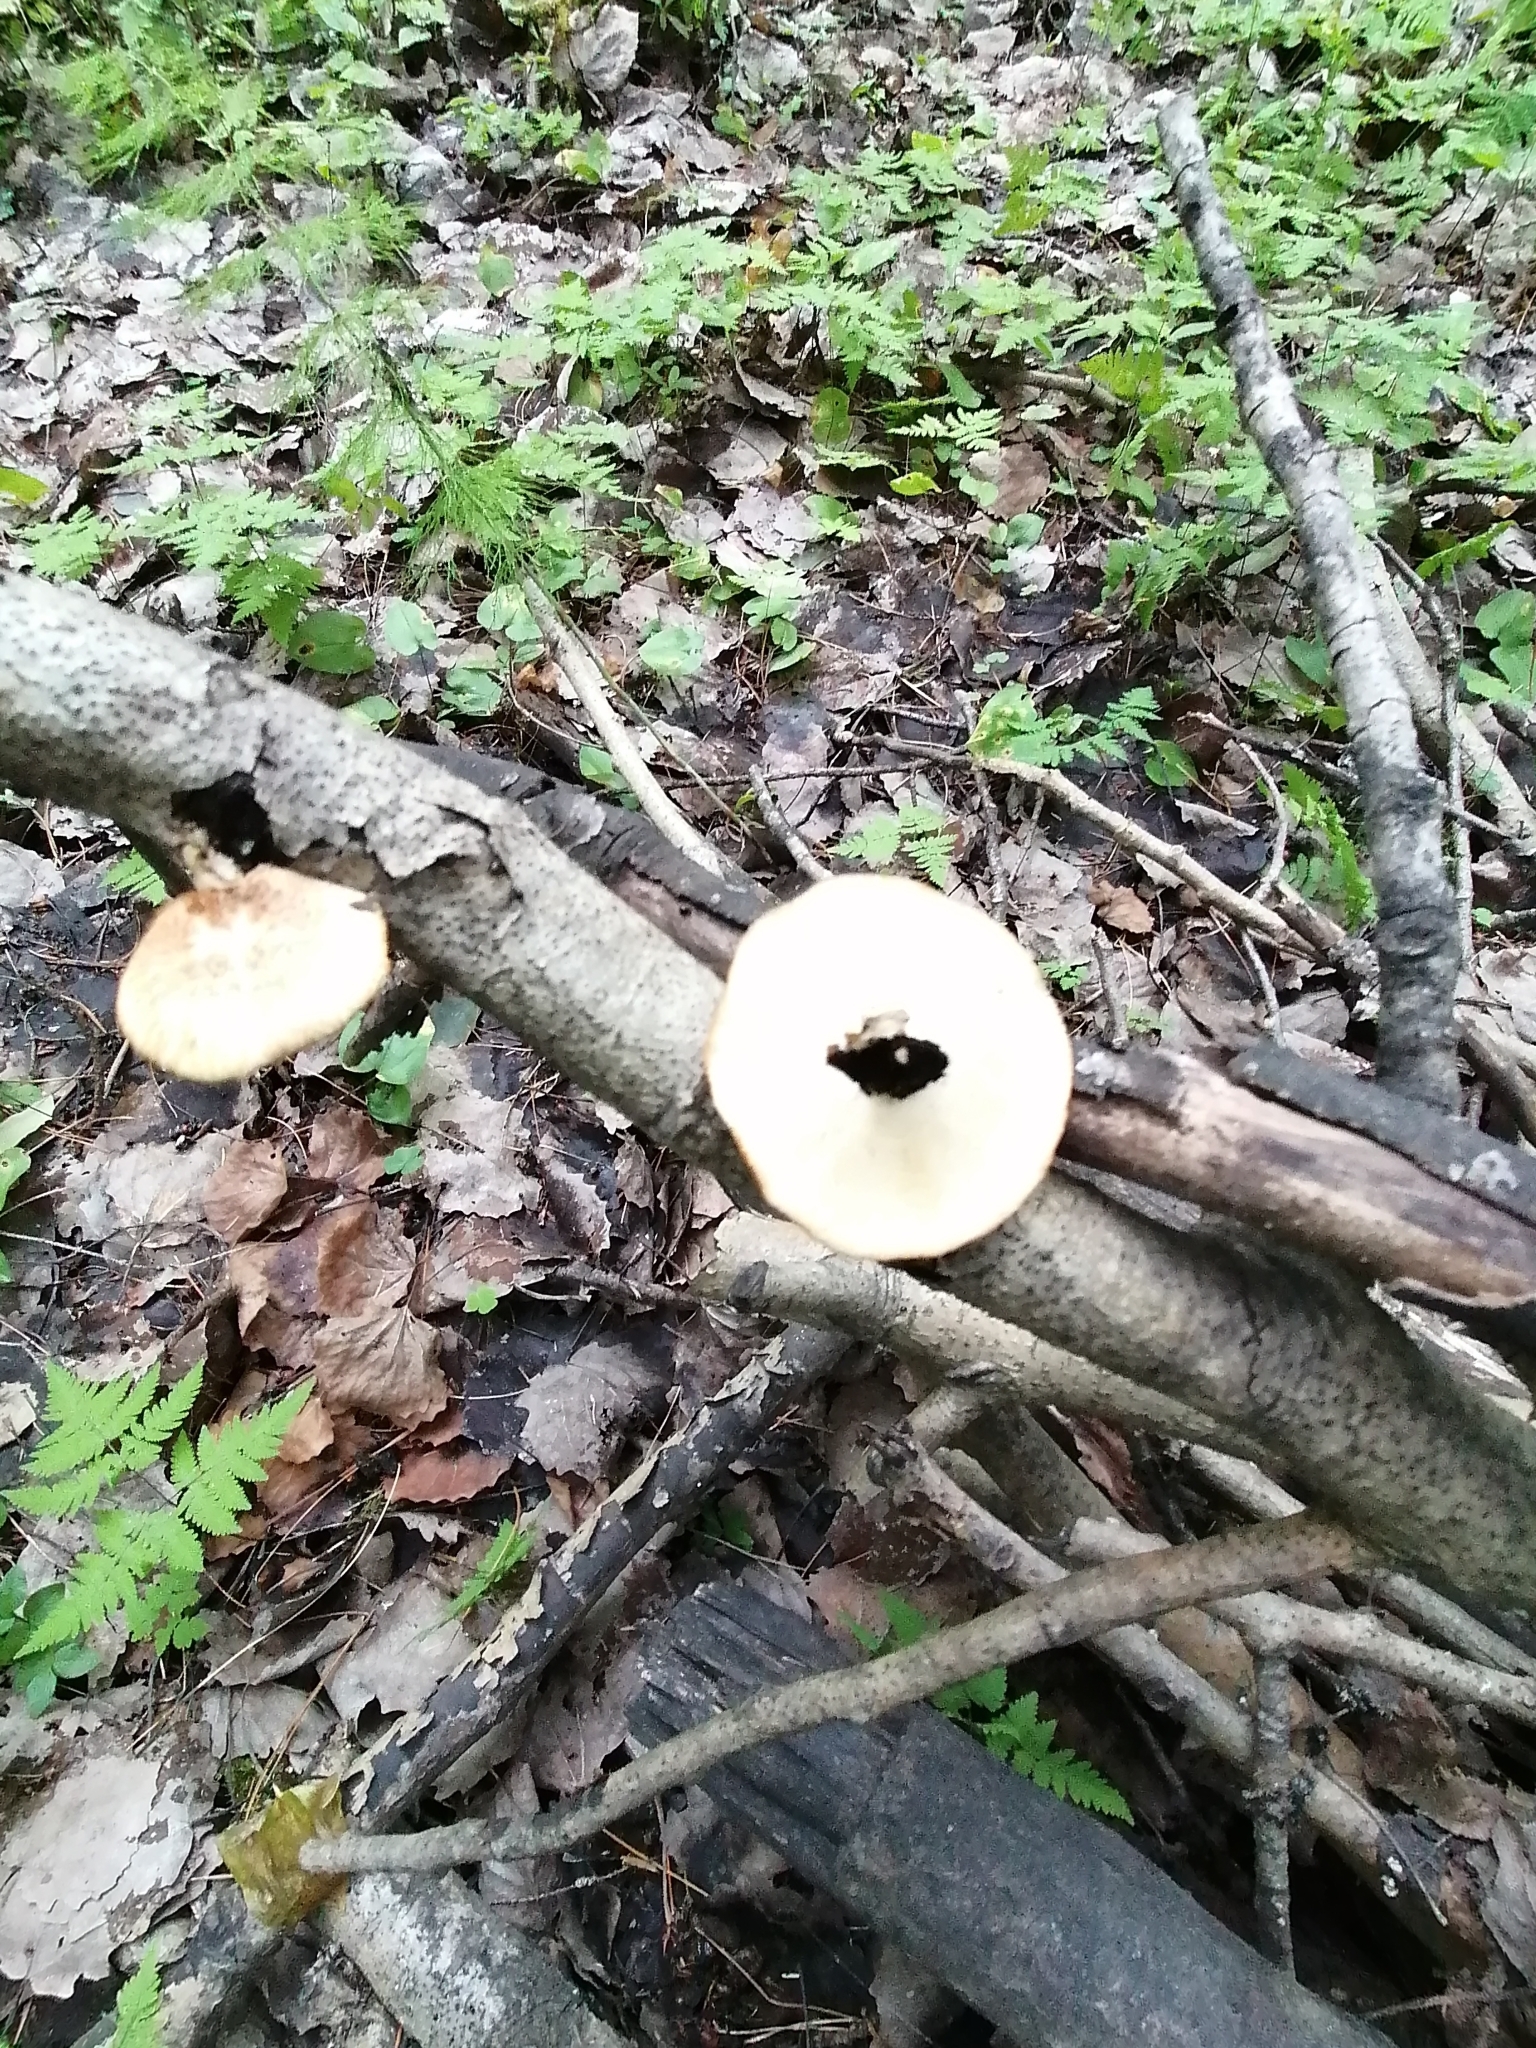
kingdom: Fungi
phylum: Basidiomycota
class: Agaricomycetes
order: Polyporales
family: Polyporaceae
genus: Lentinus
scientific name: Lentinus substrictus
